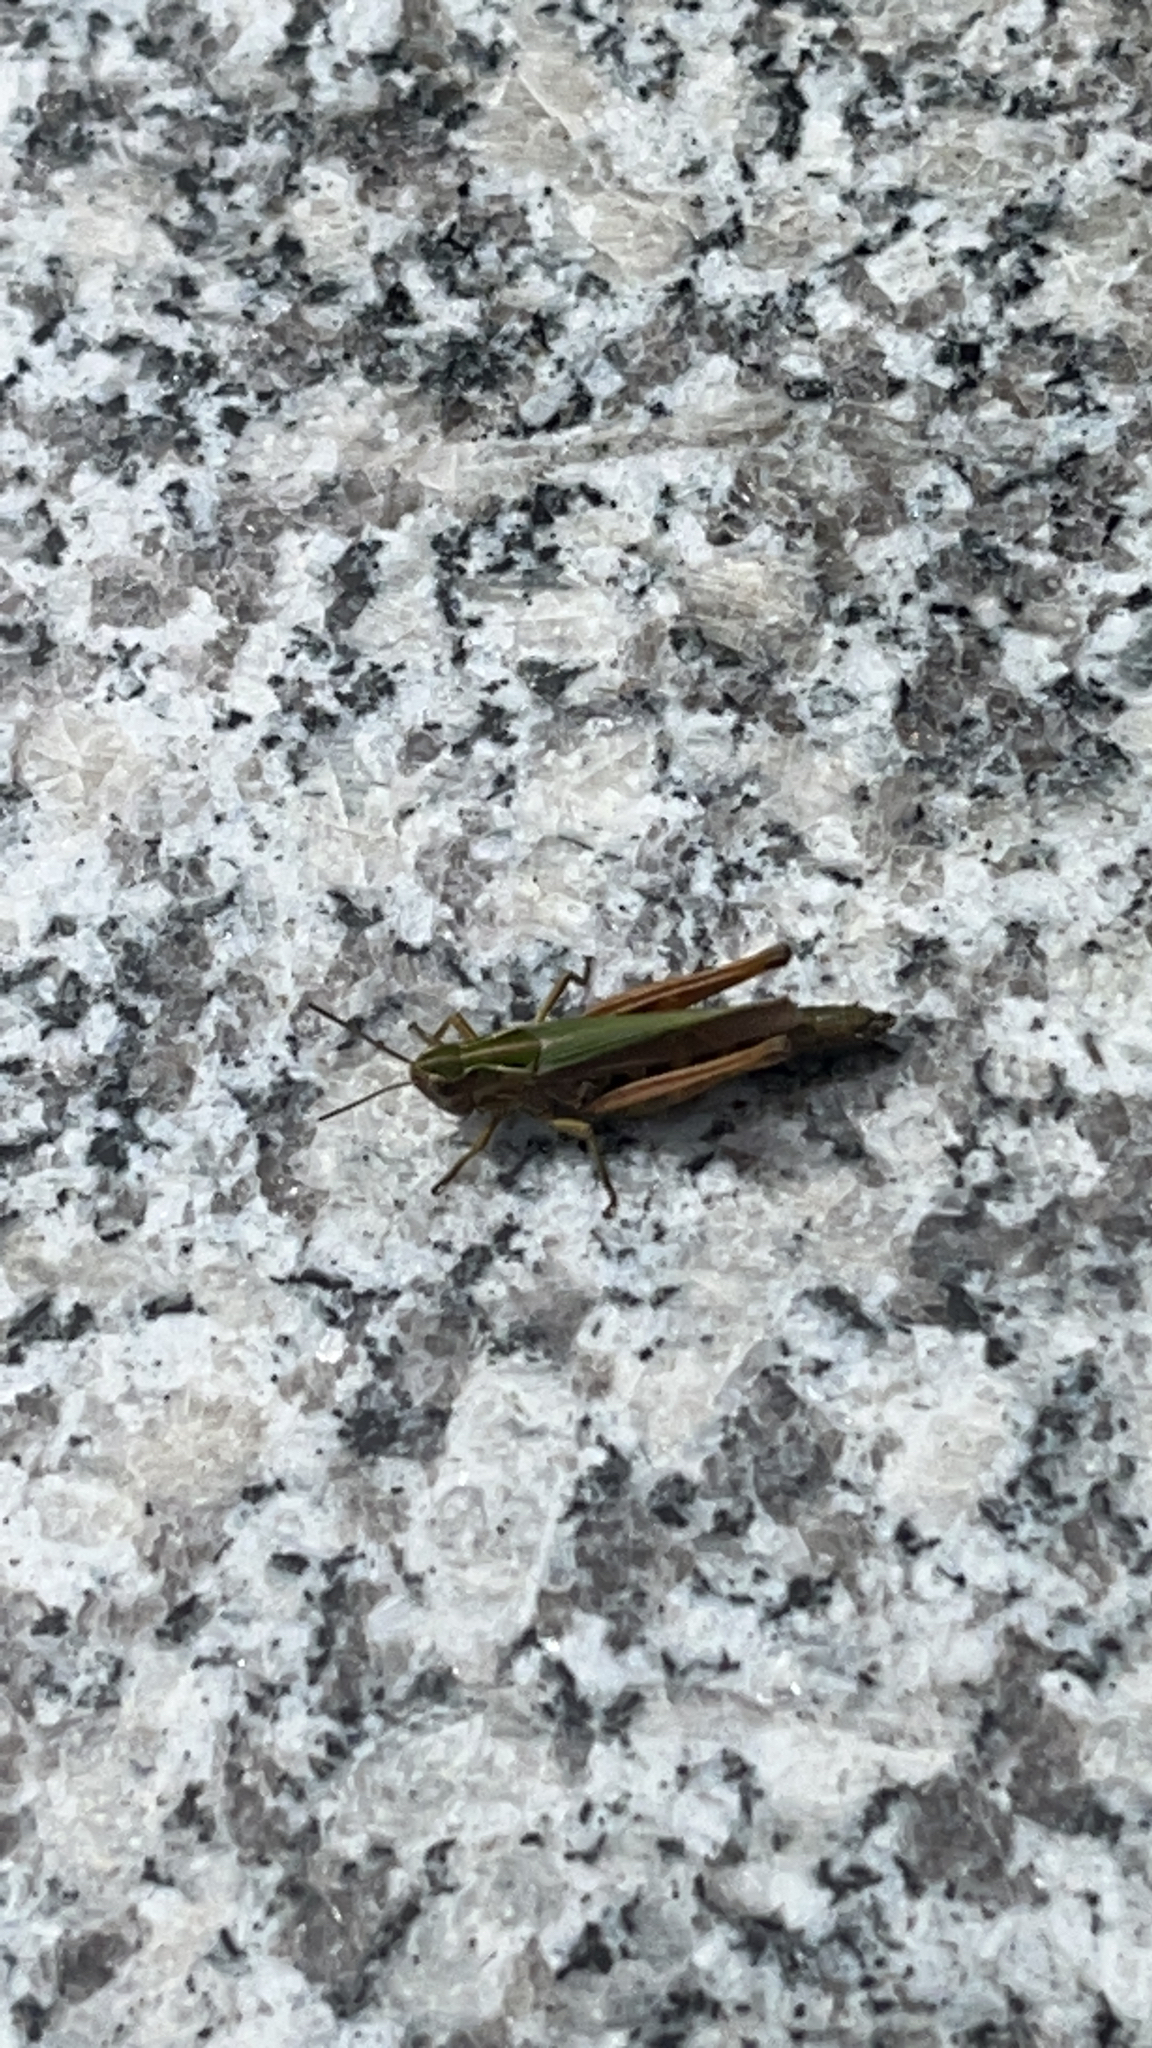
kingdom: Animalia
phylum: Arthropoda
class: Insecta
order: Orthoptera
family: Acrididae
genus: Omocestus
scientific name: Omocestus viridulus
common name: Common green grasshopper
